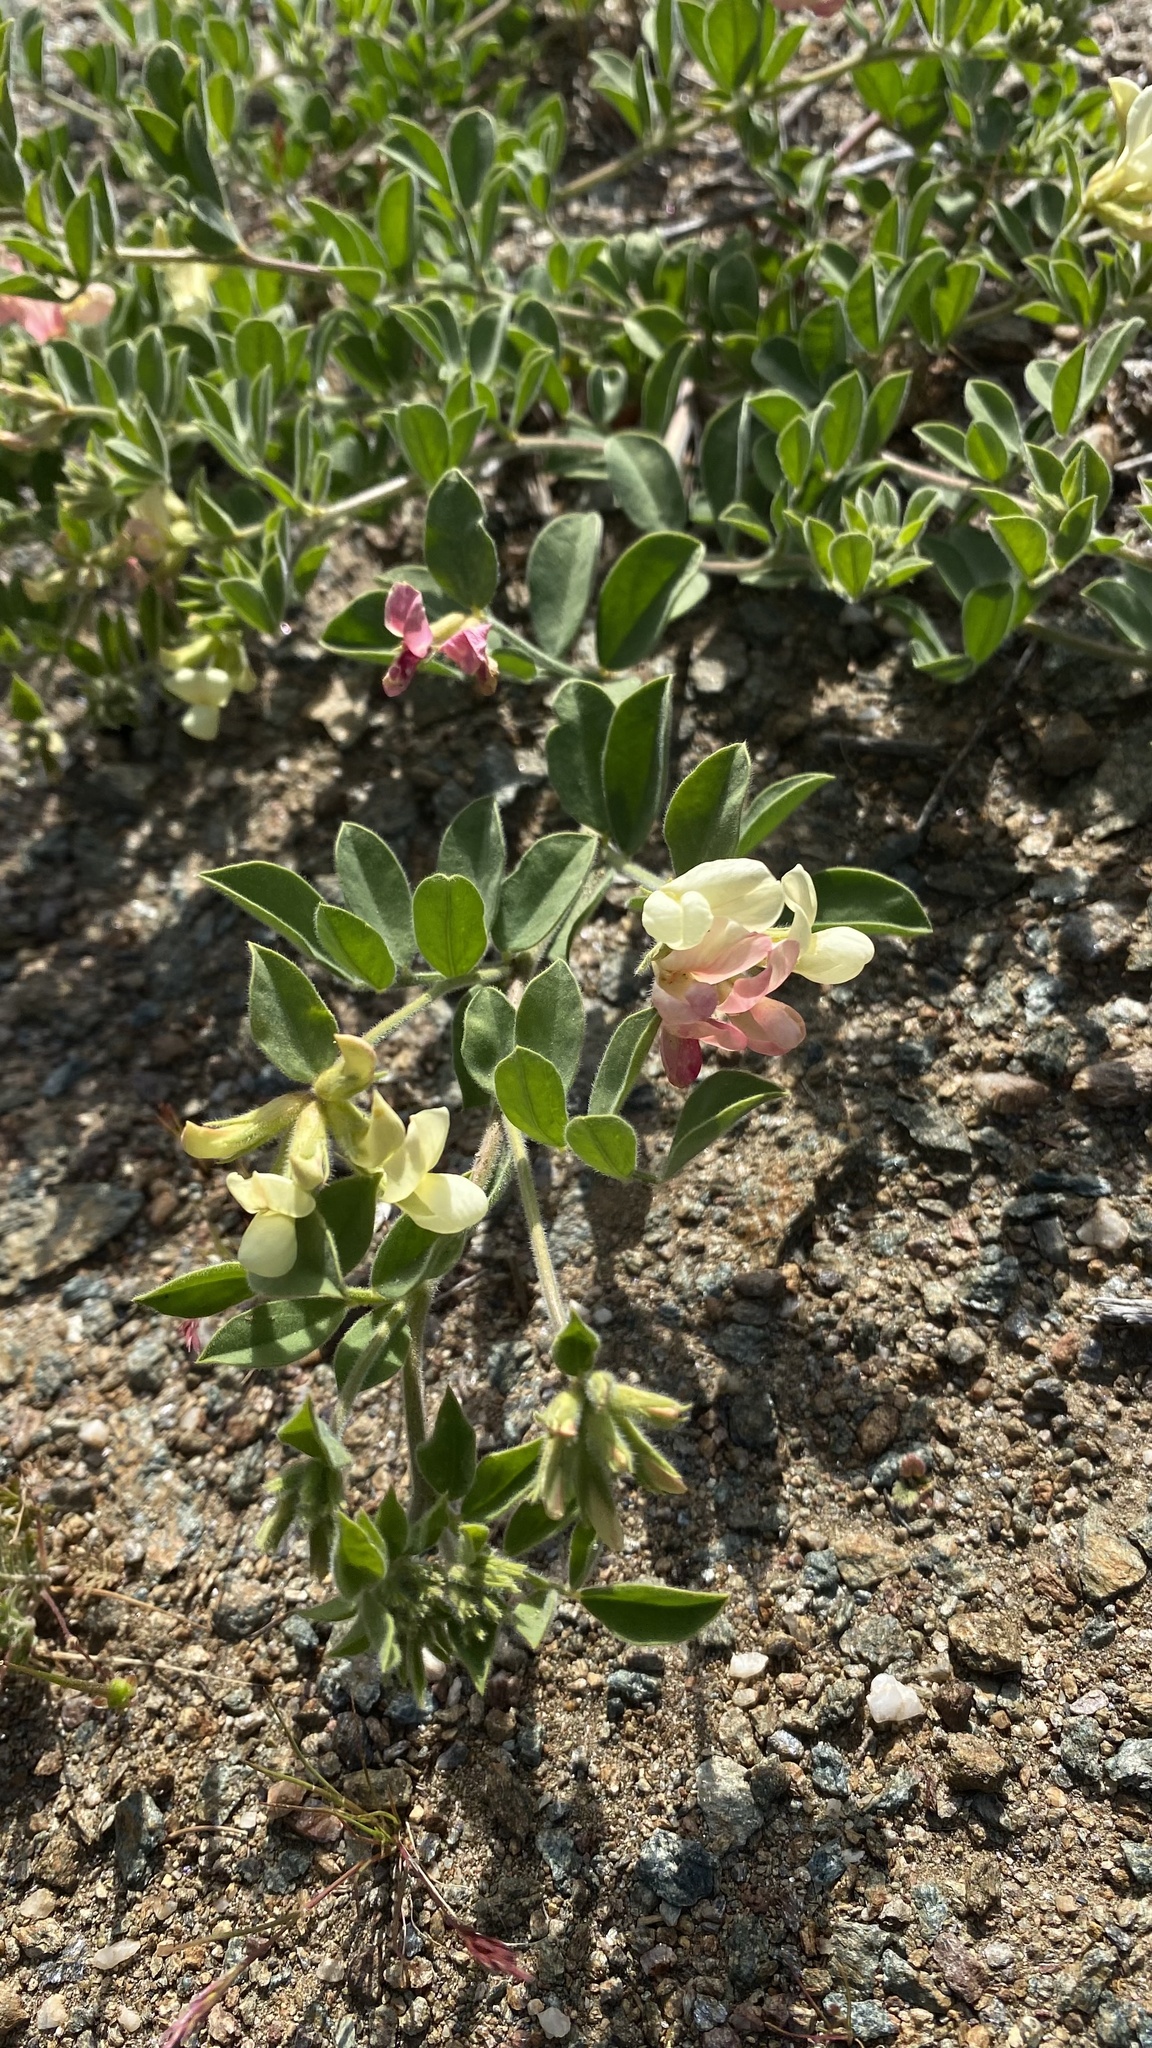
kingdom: Plantae
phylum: Tracheophyta
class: Magnoliopsida
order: Fabales
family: Fabaceae
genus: Acmispon
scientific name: Acmispon grandiflorus
